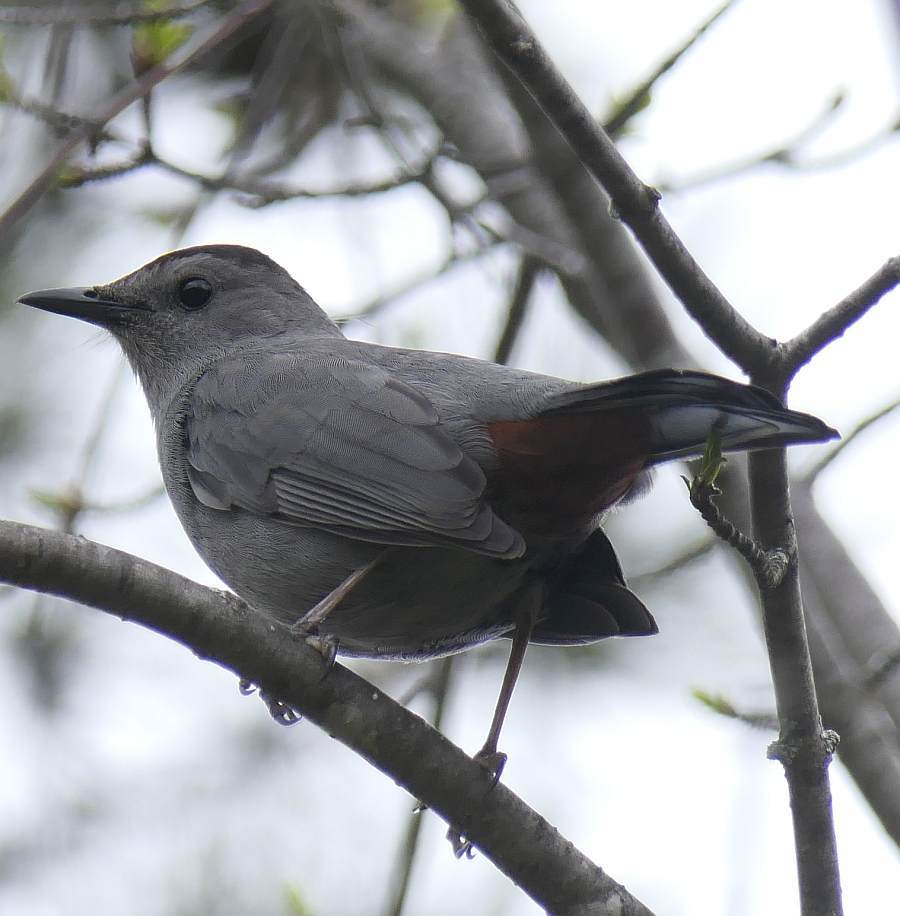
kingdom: Animalia
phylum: Chordata
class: Aves
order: Passeriformes
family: Mimidae
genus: Dumetella
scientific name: Dumetella carolinensis
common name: Gray catbird
